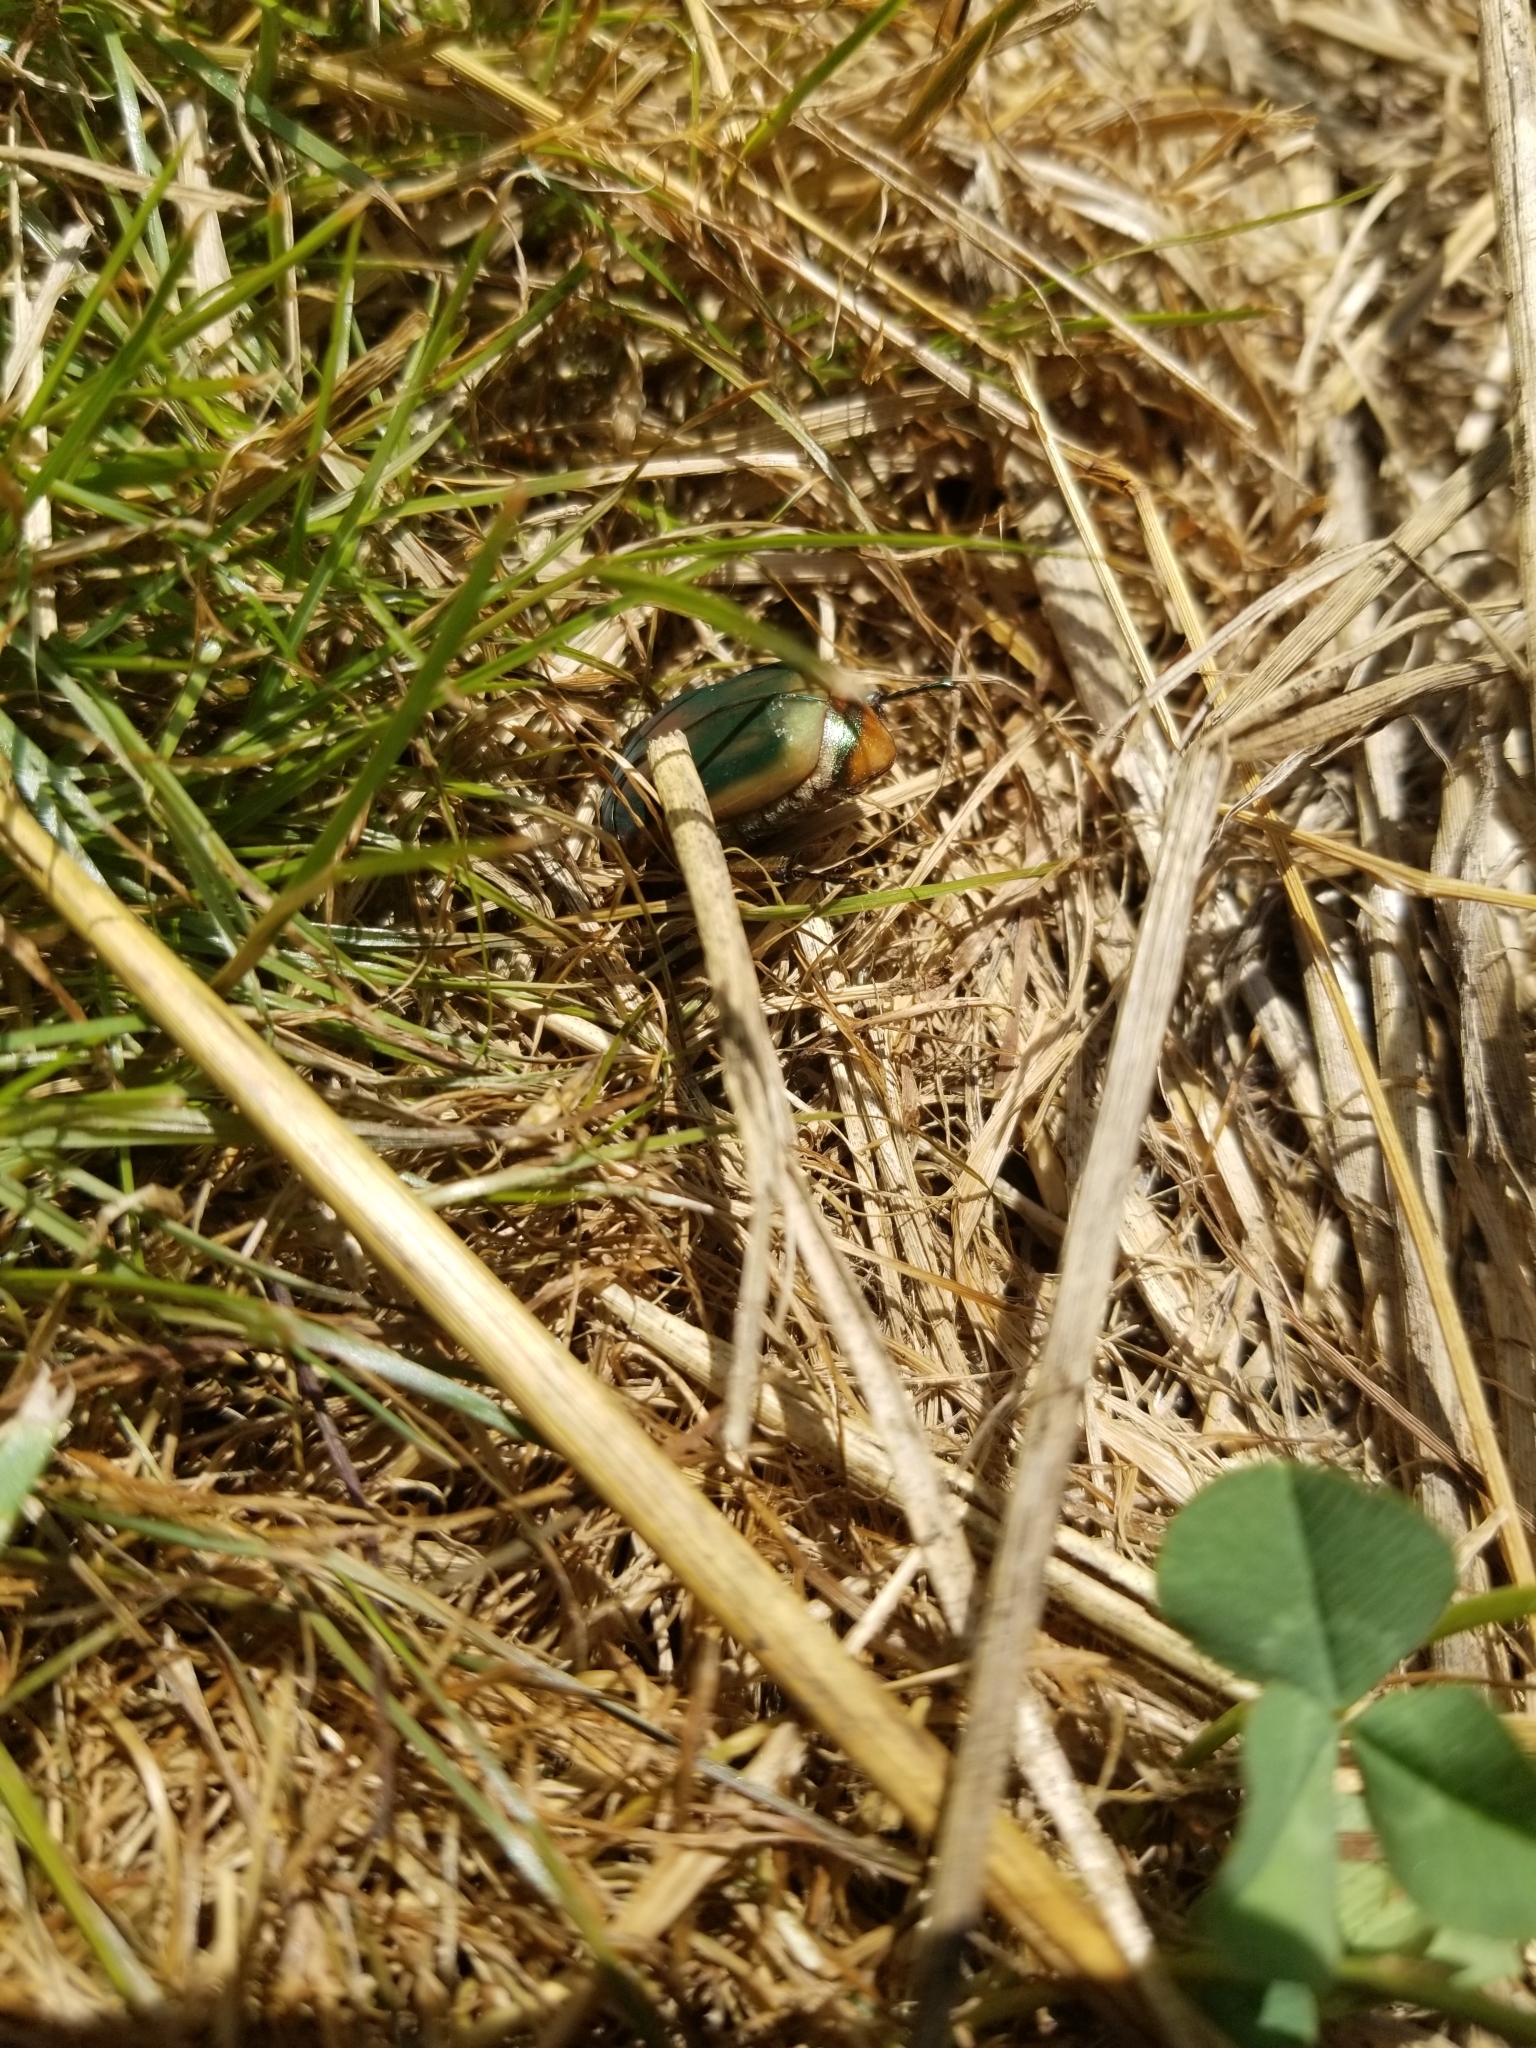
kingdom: Animalia
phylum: Arthropoda
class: Insecta
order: Coleoptera
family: Scarabaeidae
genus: Cotinis
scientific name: Cotinis nitida
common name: Common green june beetle
